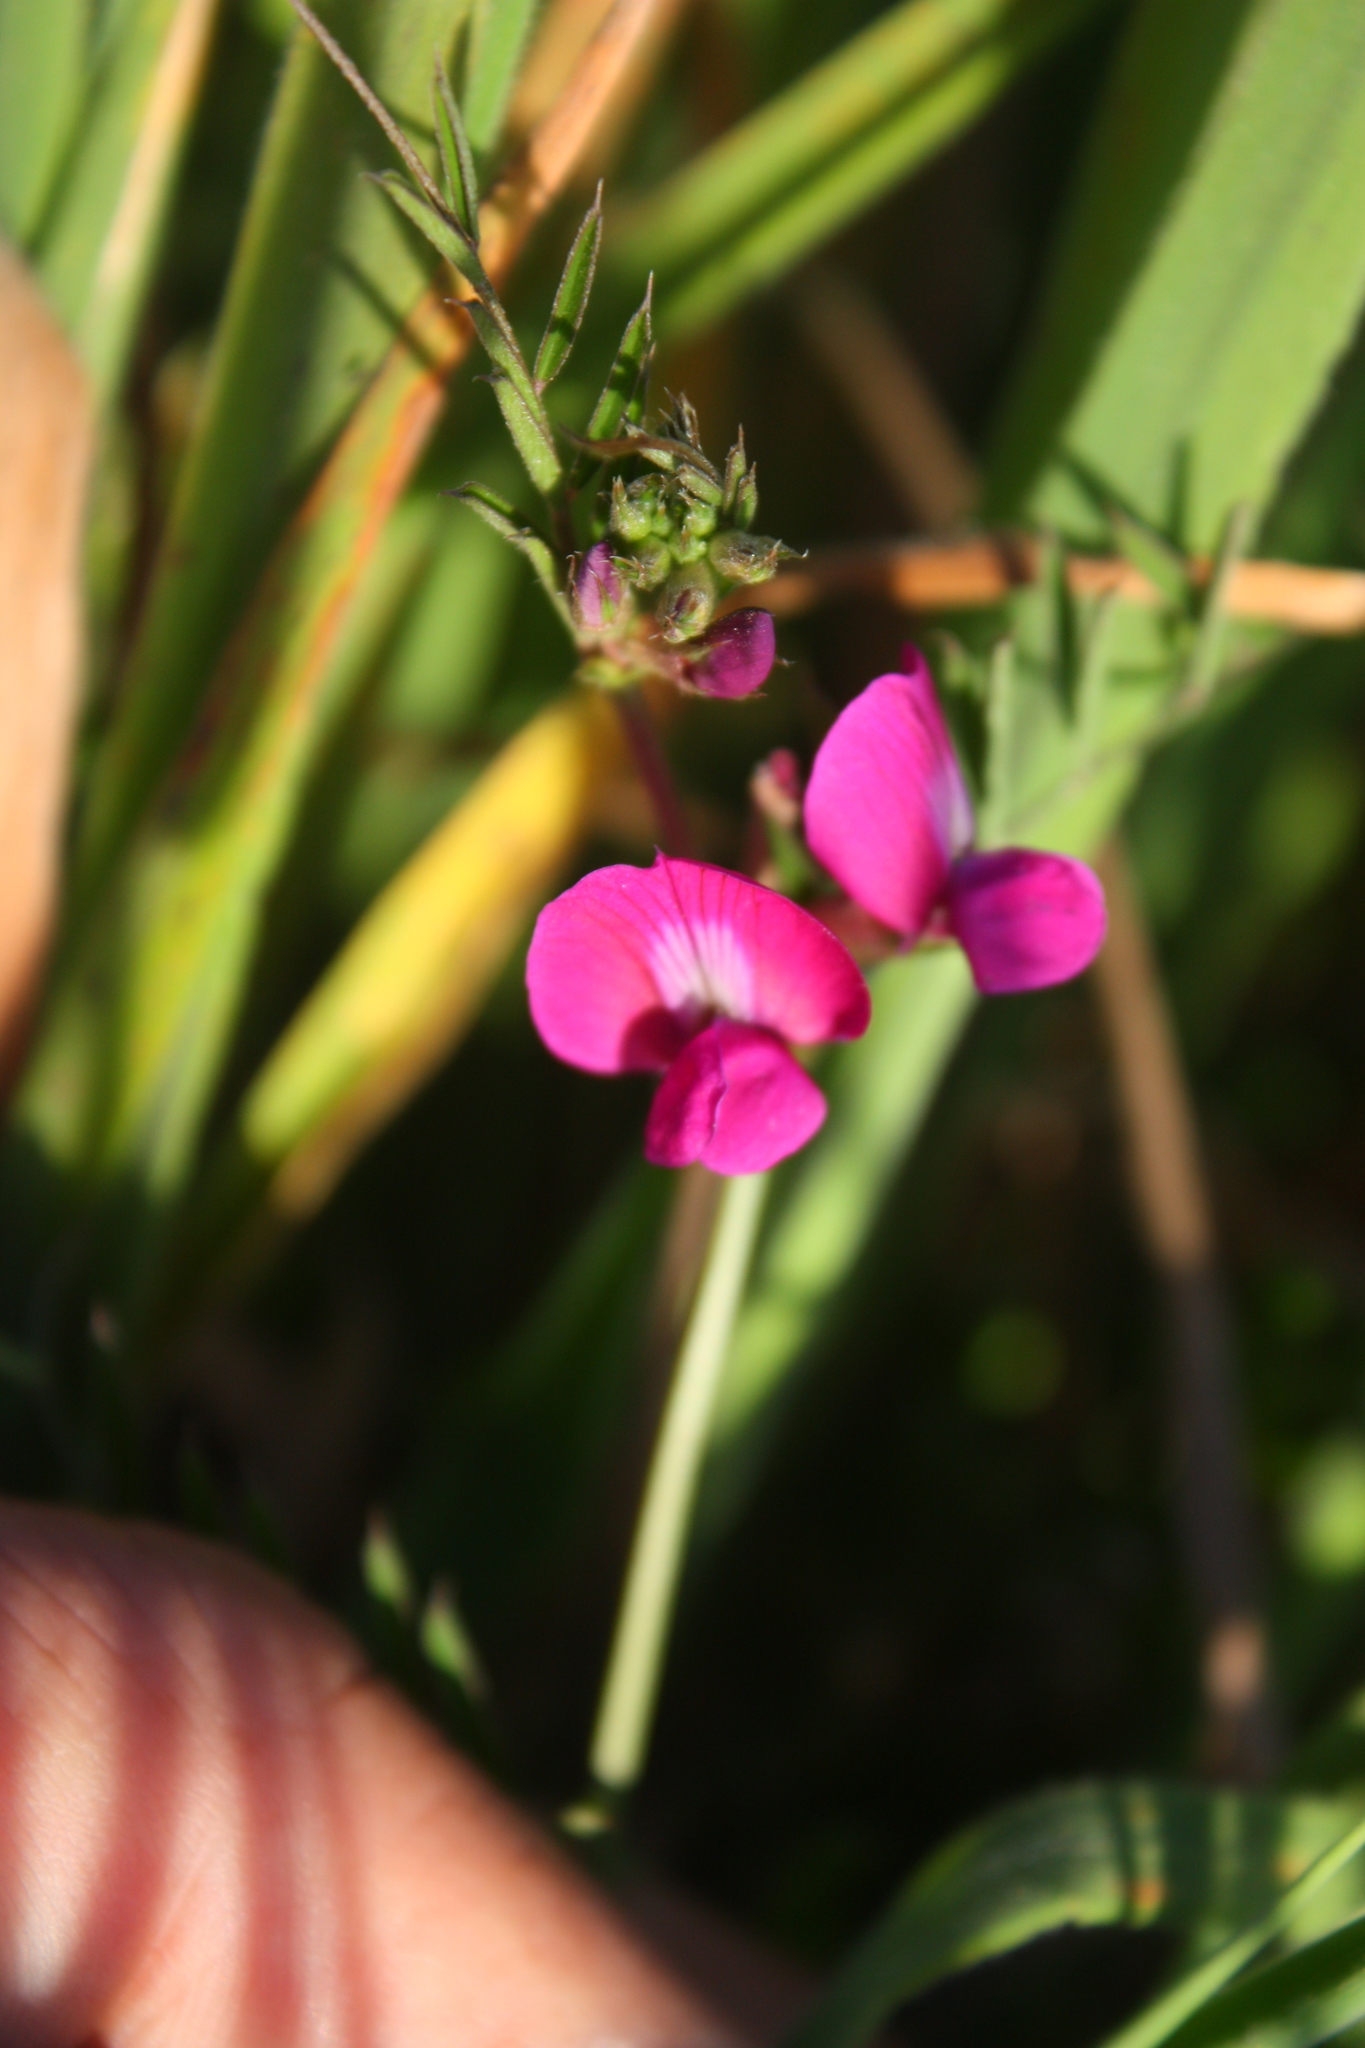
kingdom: Plantae
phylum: Tracheophyta
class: Magnoliopsida
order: Fabales
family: Fabaceae
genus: Vicia
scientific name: Vicia sativa
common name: Garden vetch
